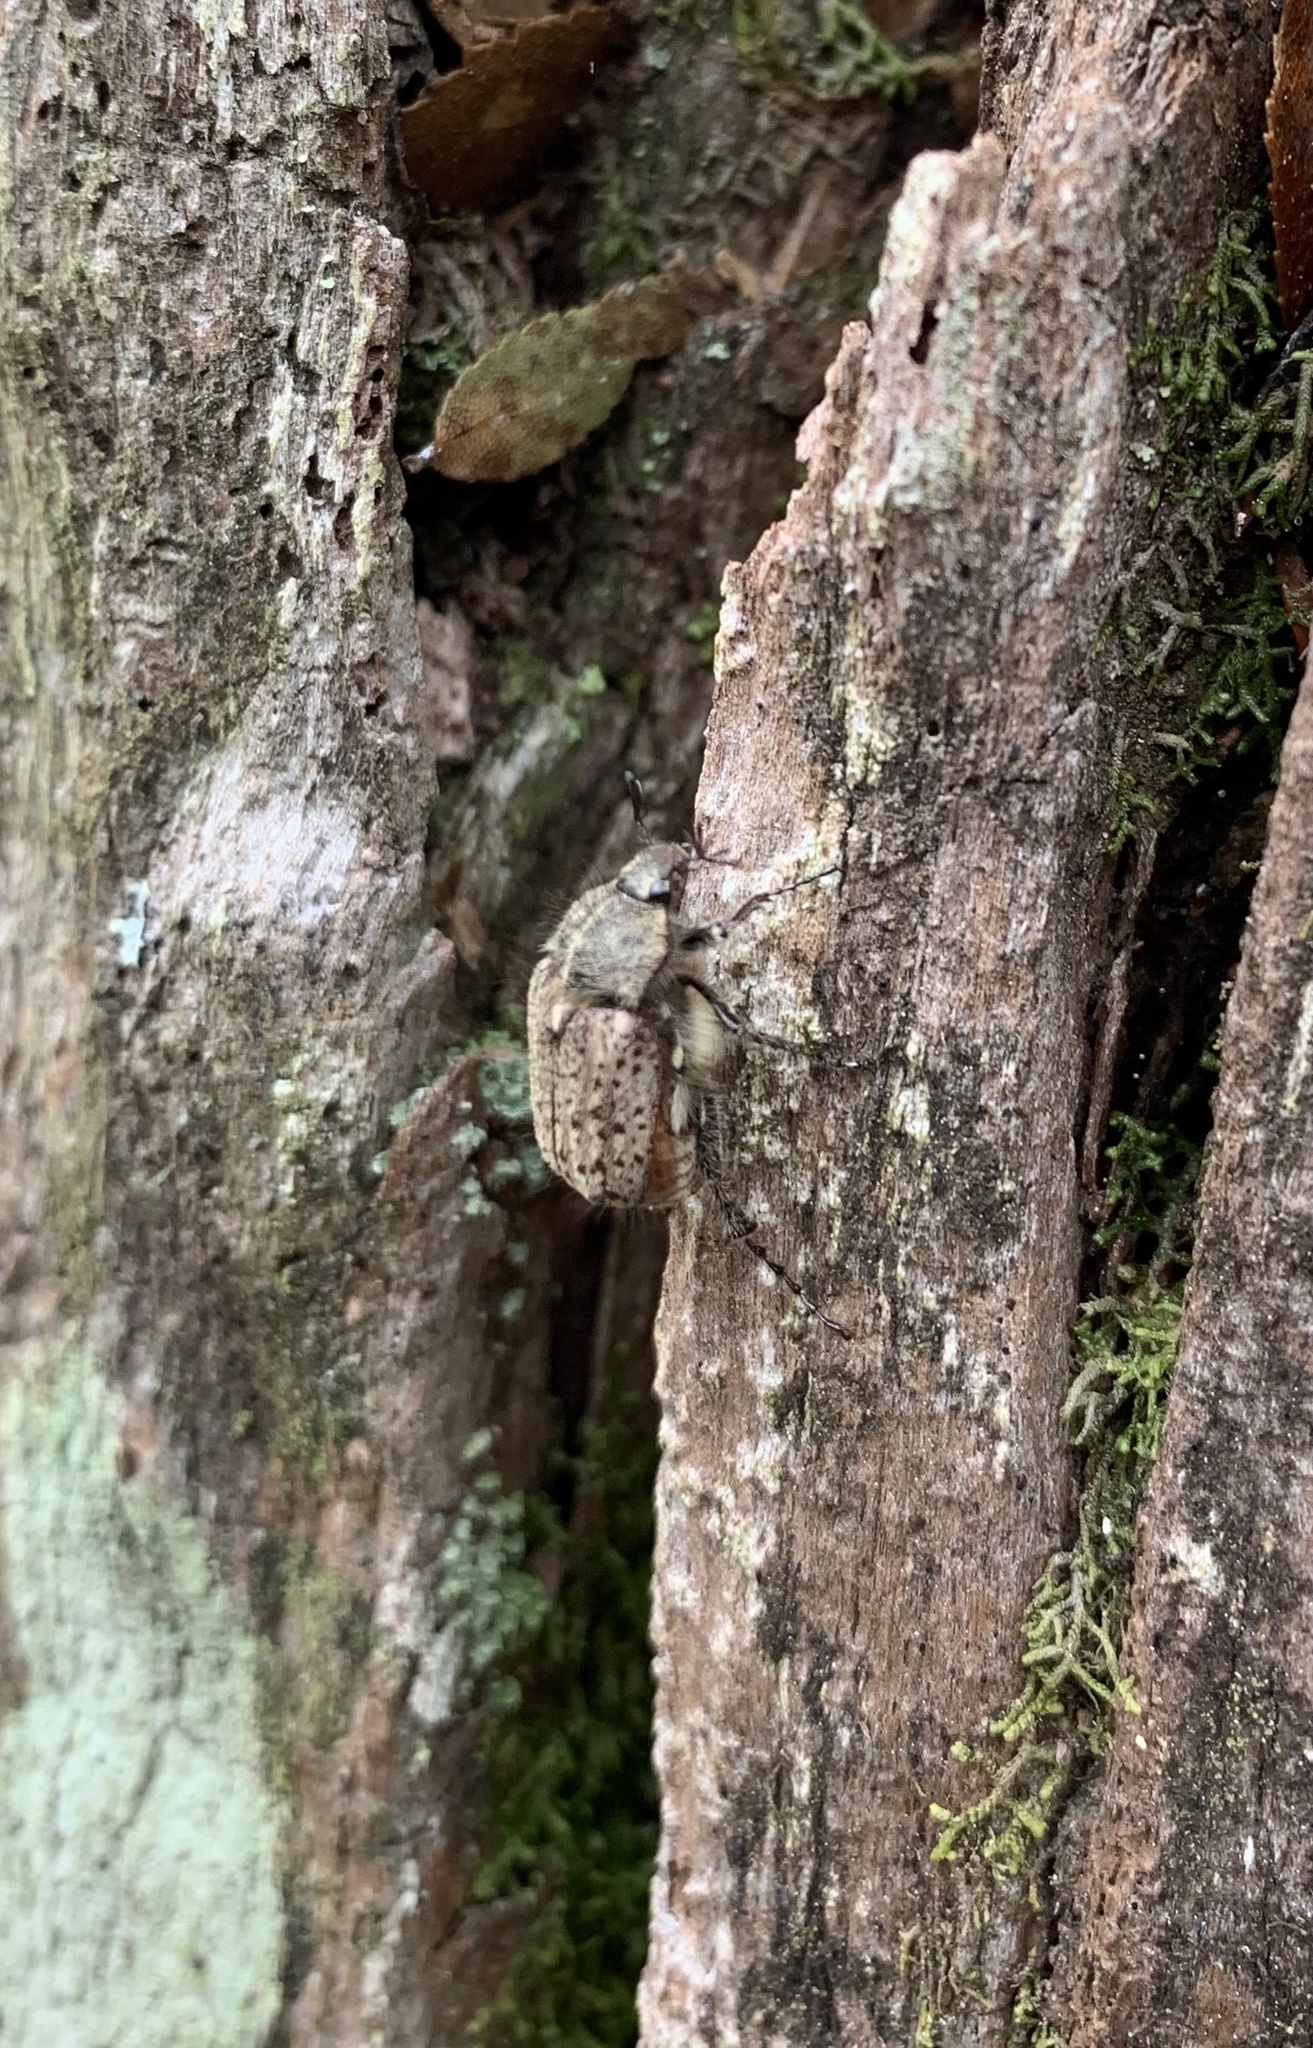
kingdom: Animalia
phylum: Arthropoda
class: Insecta
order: Coleoptera
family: Scarabaeidae
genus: Diaphylla
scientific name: Diaphylla granulata
